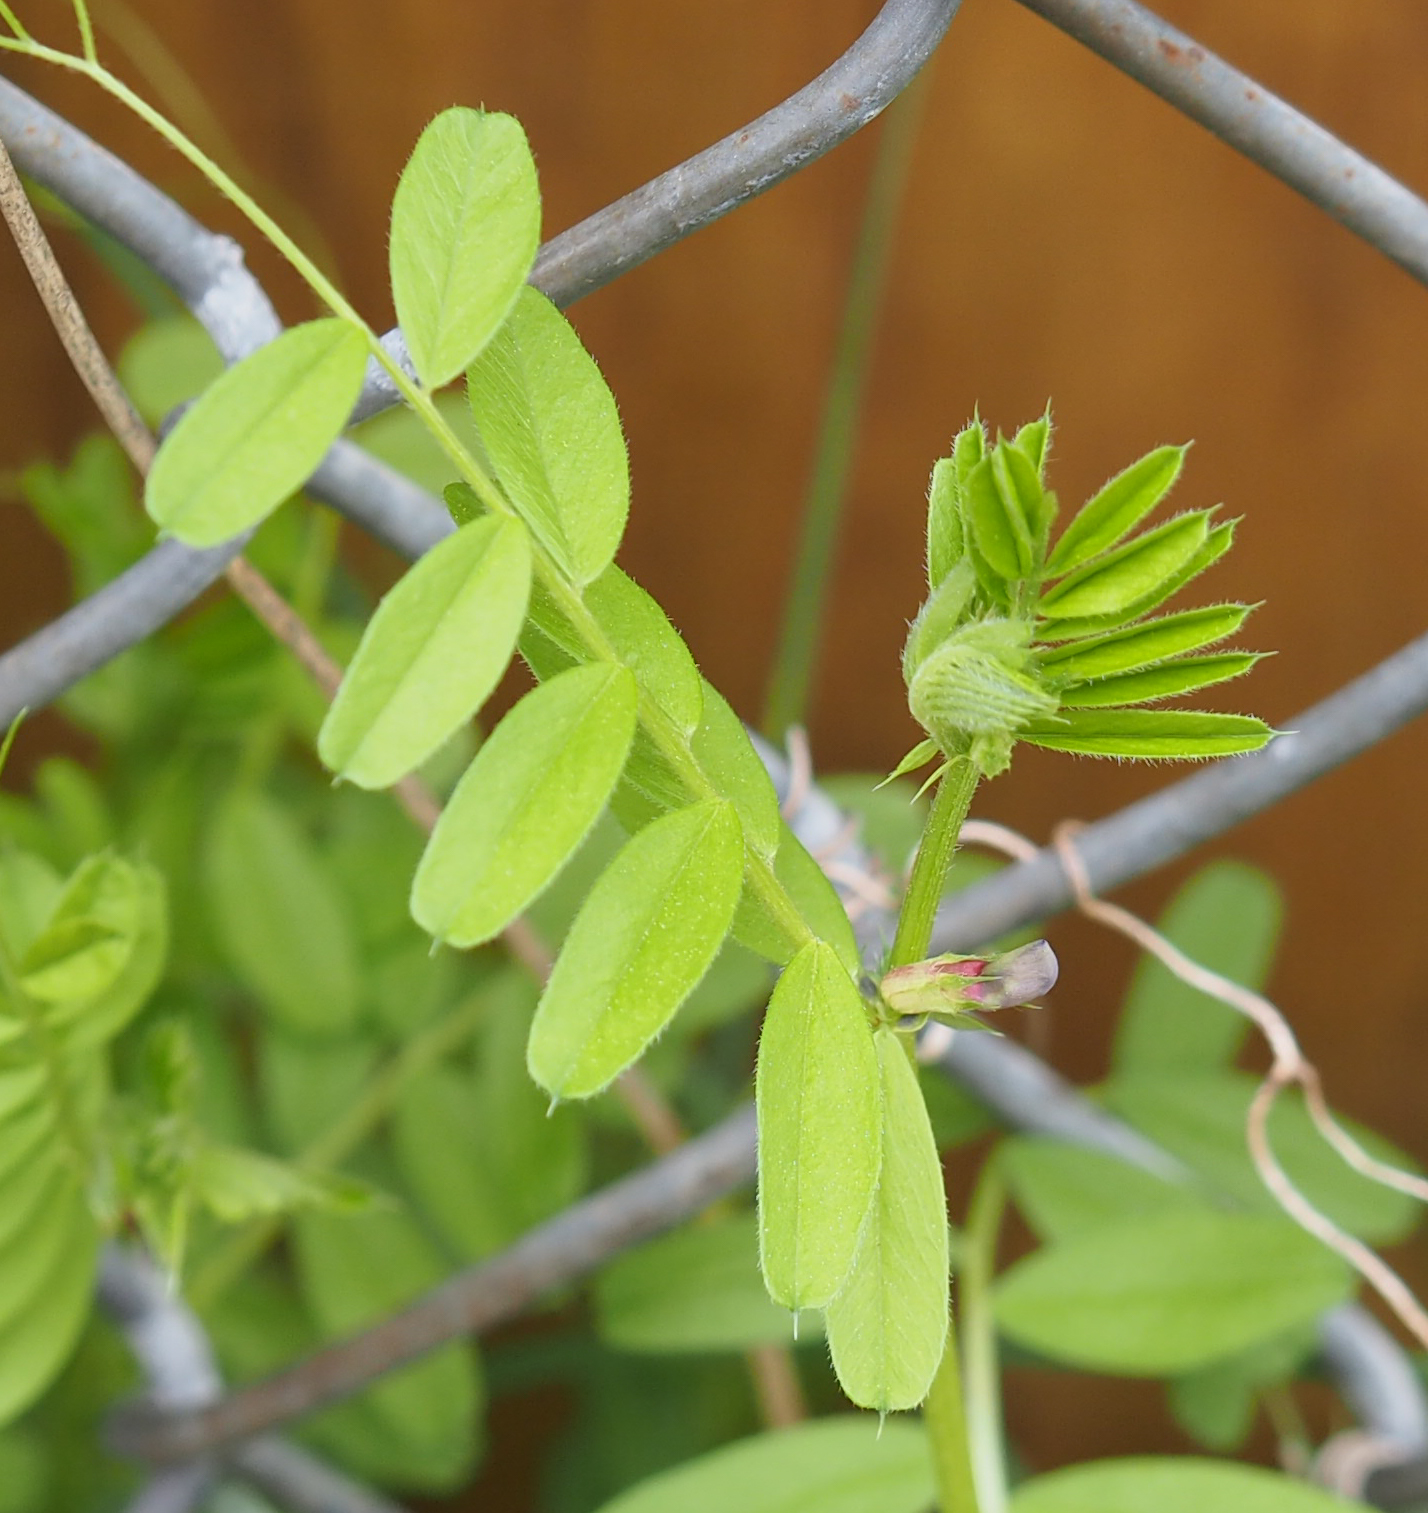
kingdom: Plantae
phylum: Tracheophyta
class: Magnoliopsida
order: Fabales
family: Fabaceae
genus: Vicia
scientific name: Vicia sativa
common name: Garden vetch
